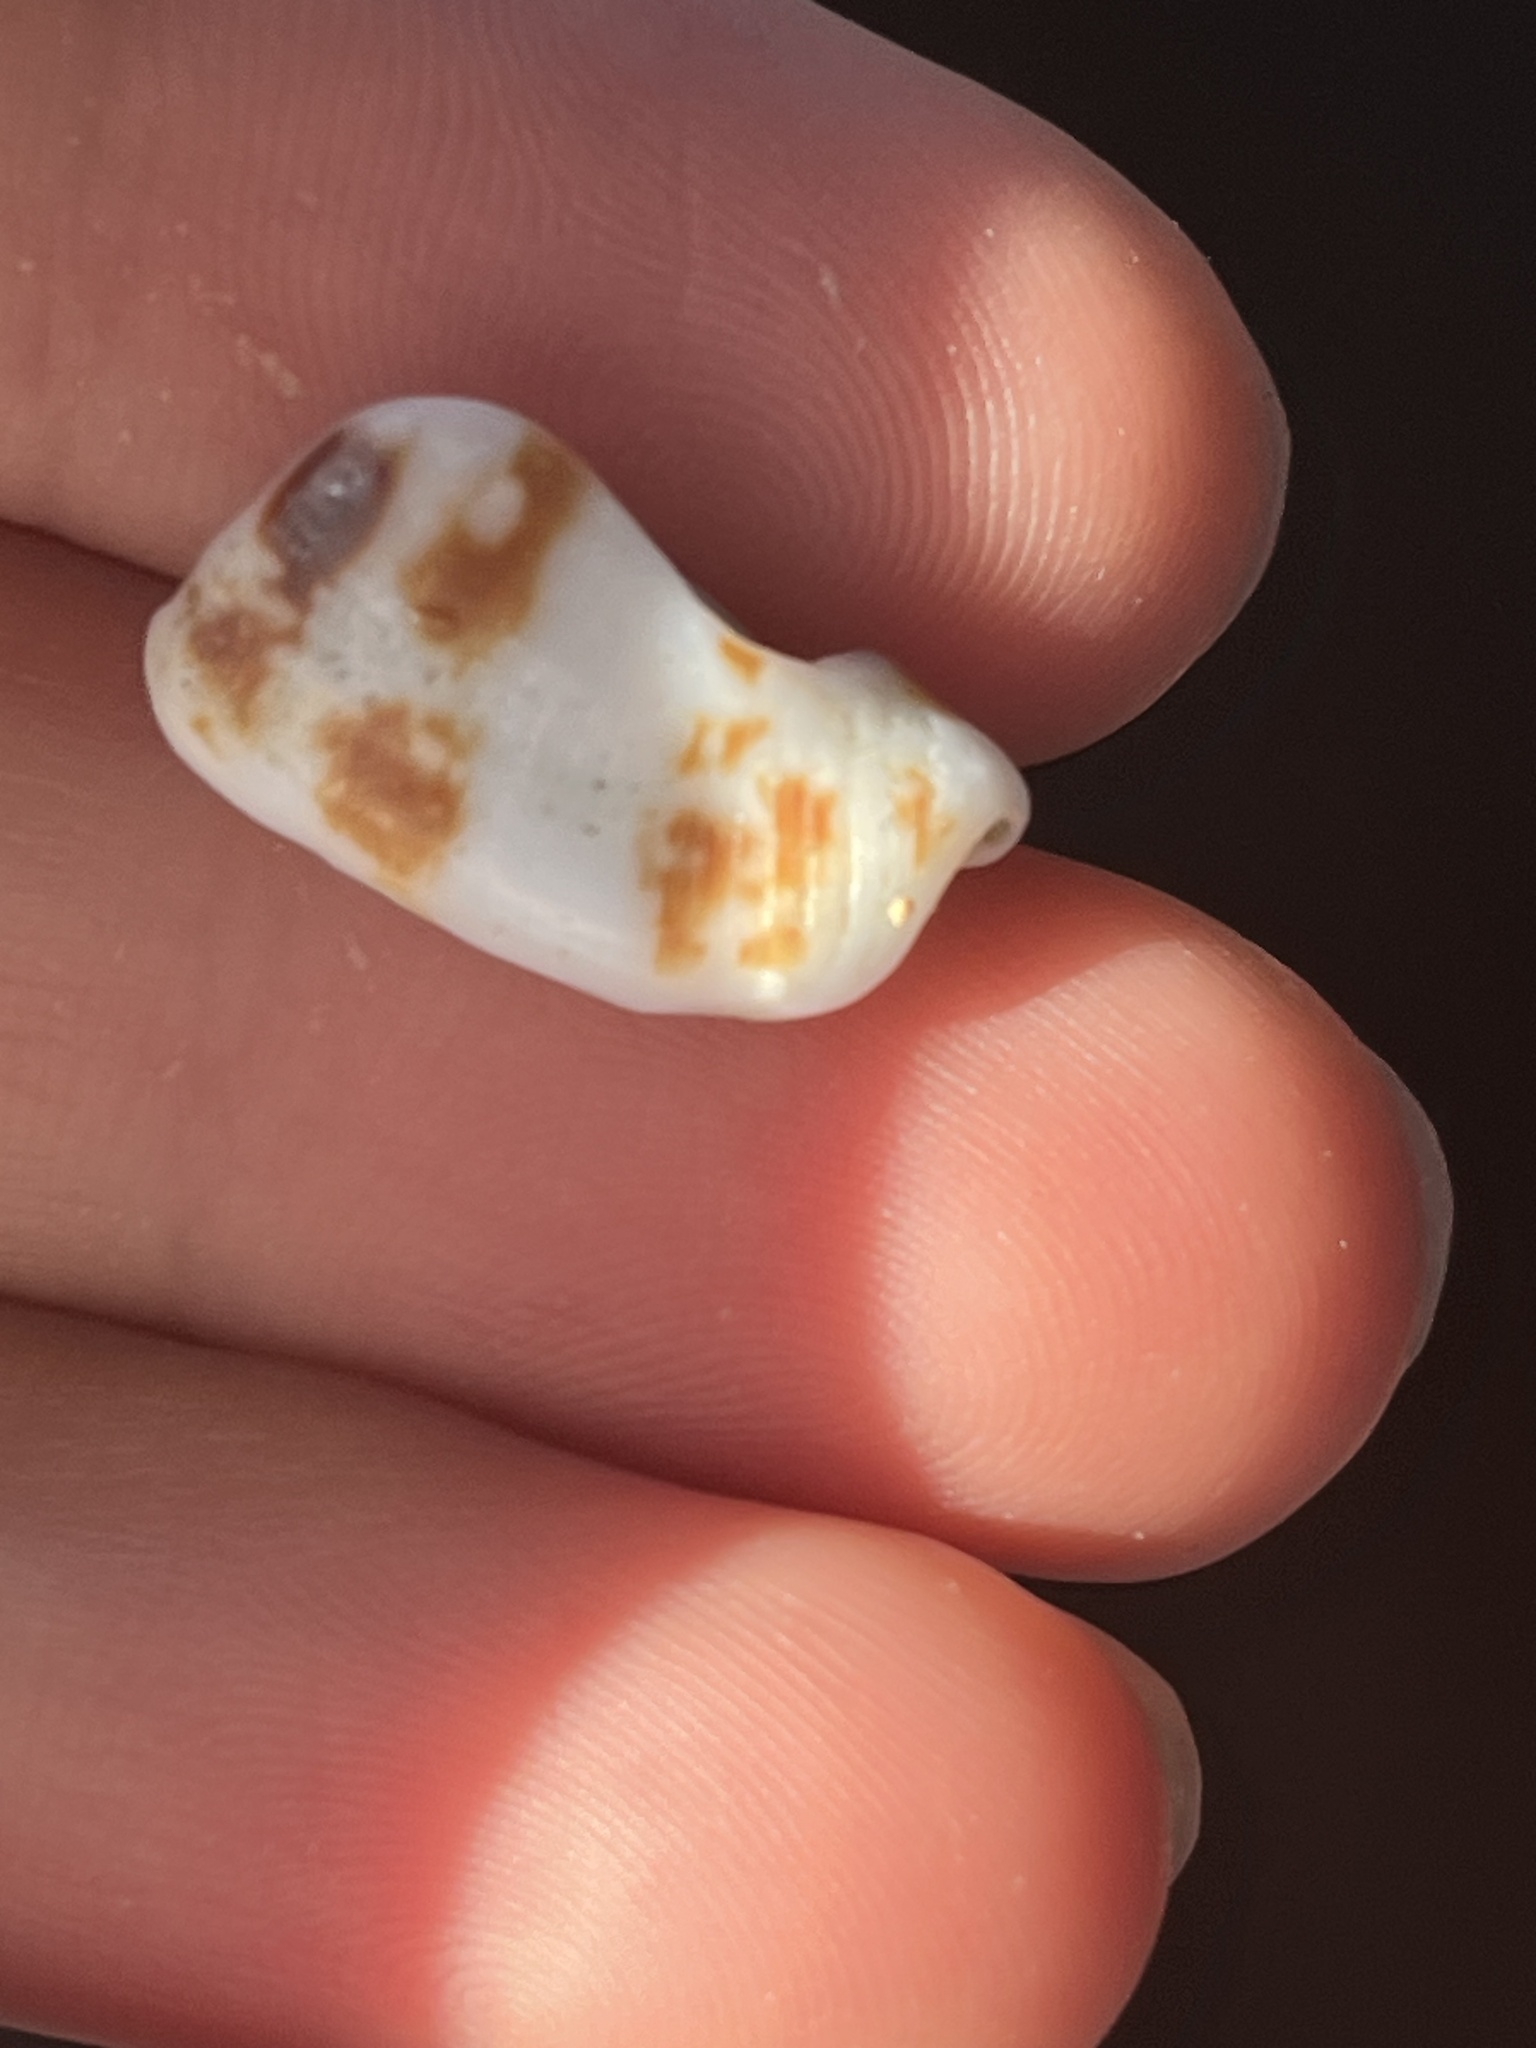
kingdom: Animalia
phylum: Mollusca
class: Gastropoda
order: Littorinimorpha
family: Strombidae
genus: Maculastrombus
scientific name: Maculastrombus maculatus
